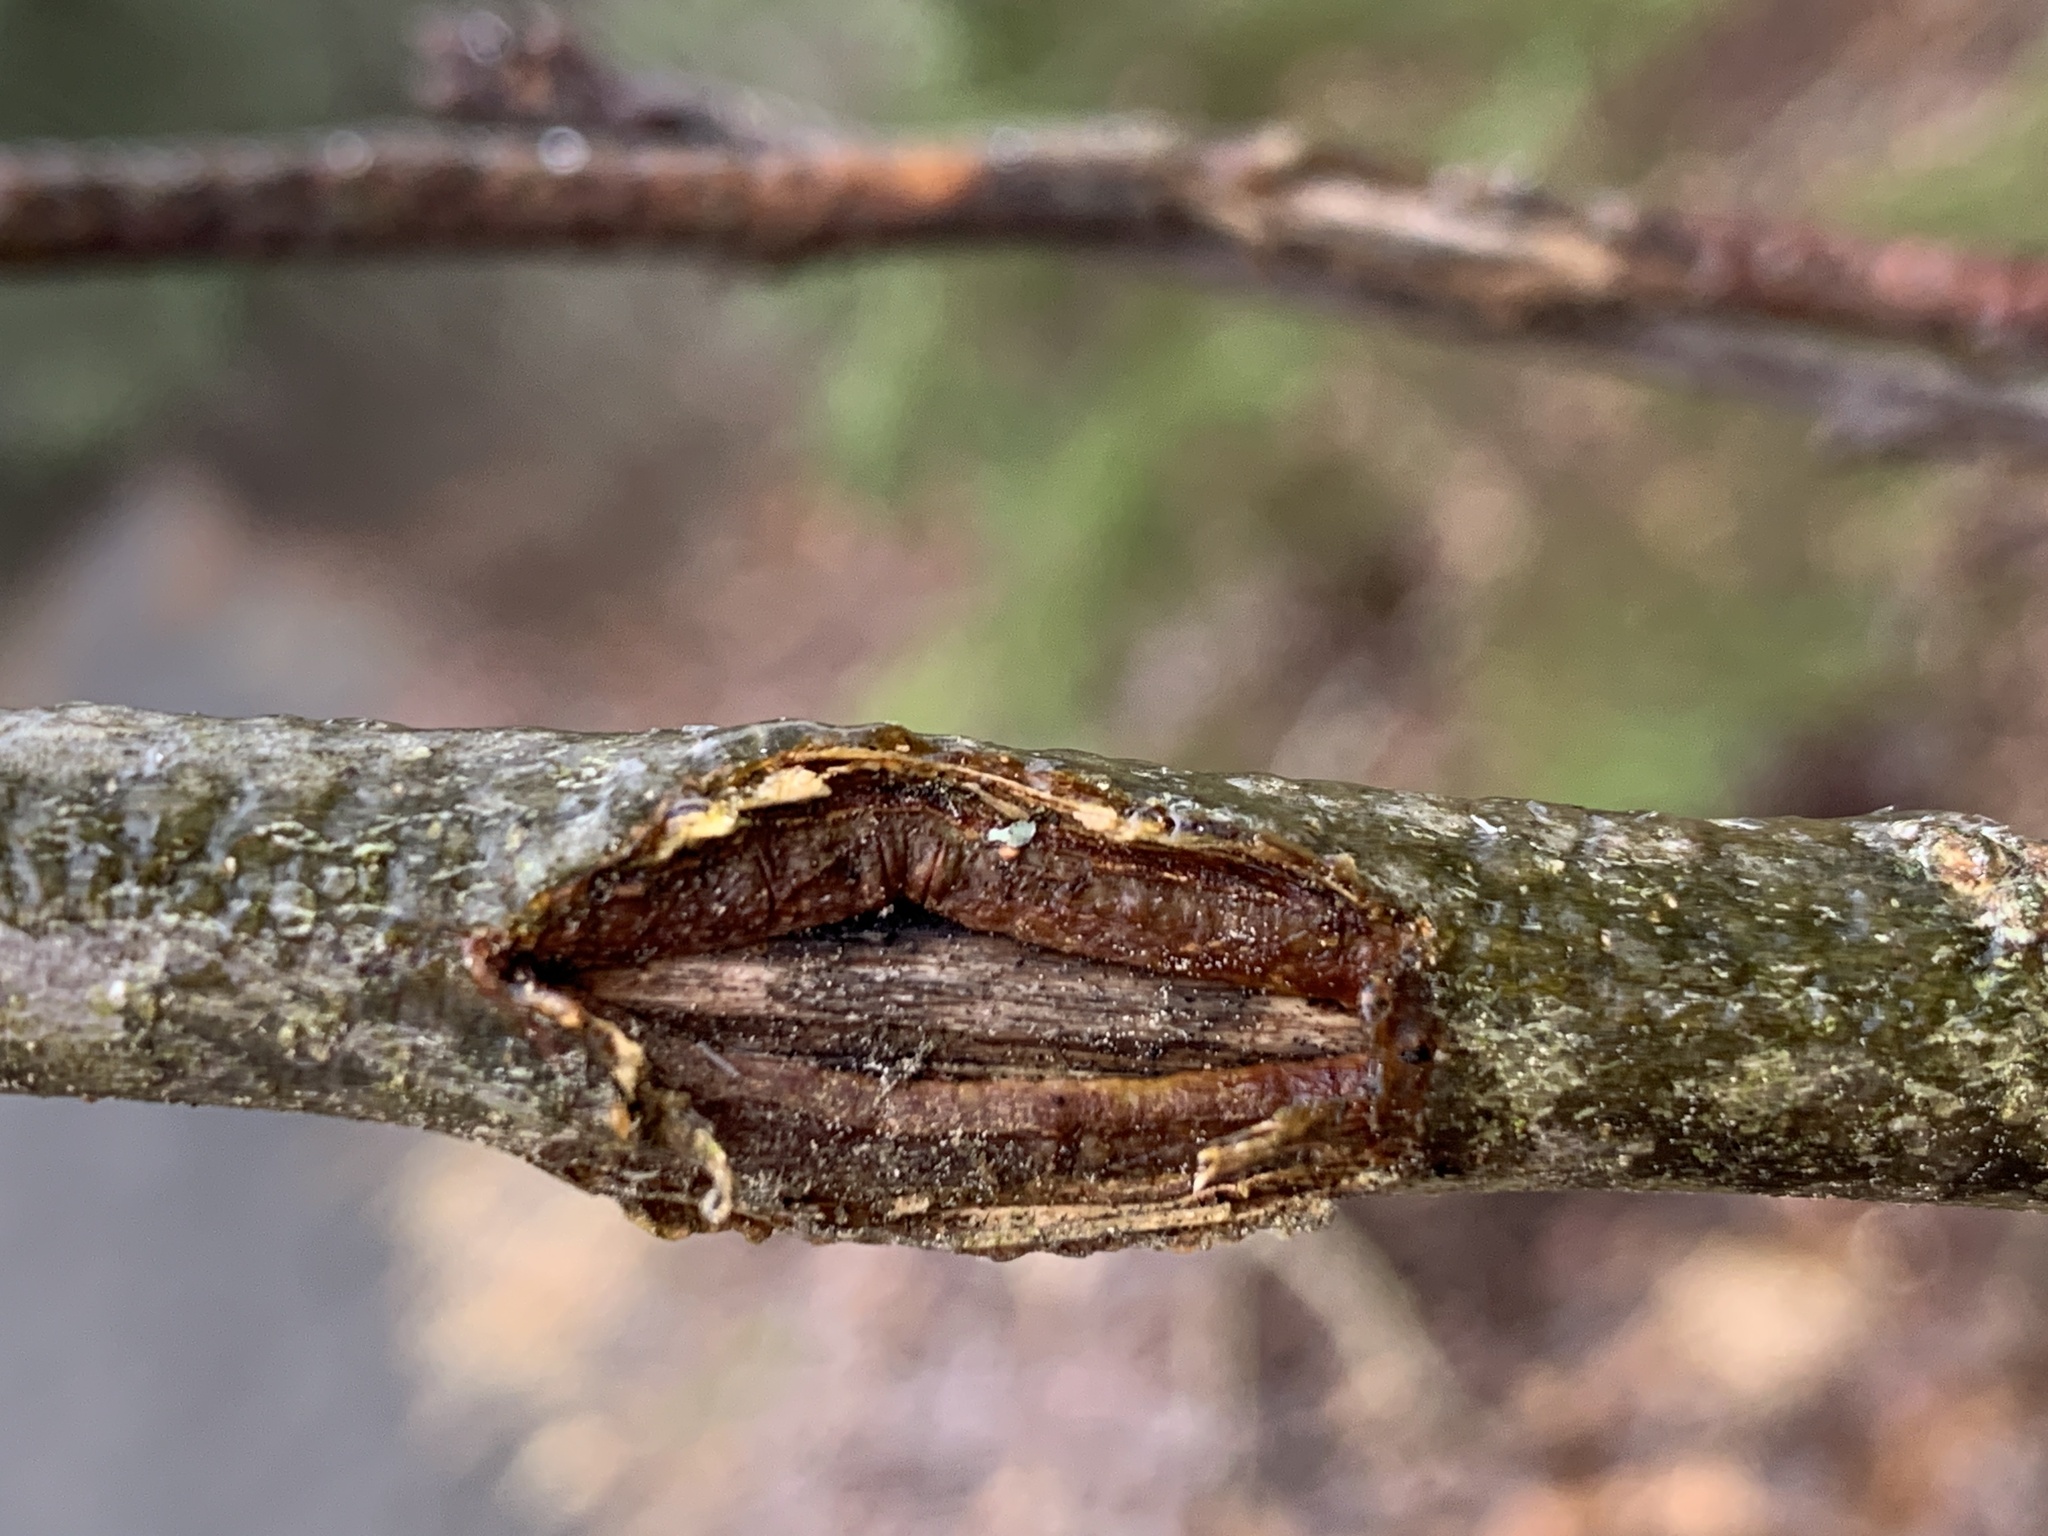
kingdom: Animalia
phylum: Arthropoda
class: Insecta
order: Hymenoptera
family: Cynipidae
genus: Callirhytis
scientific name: Callirhytis
